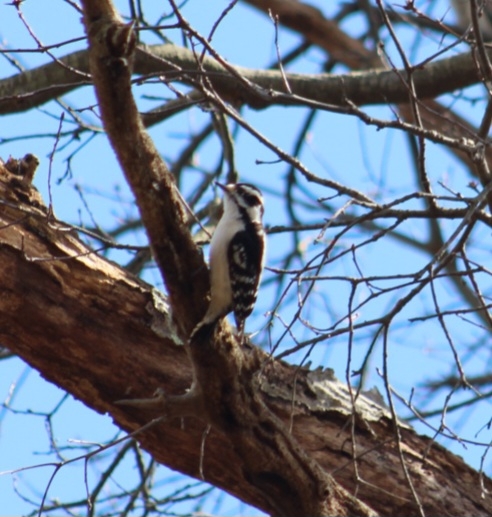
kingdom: Animalia
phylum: Chordata
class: Aves
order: Piciformes
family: Picidae
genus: Dryobates
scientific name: Dryobates pubescens
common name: Downy woodpecker
